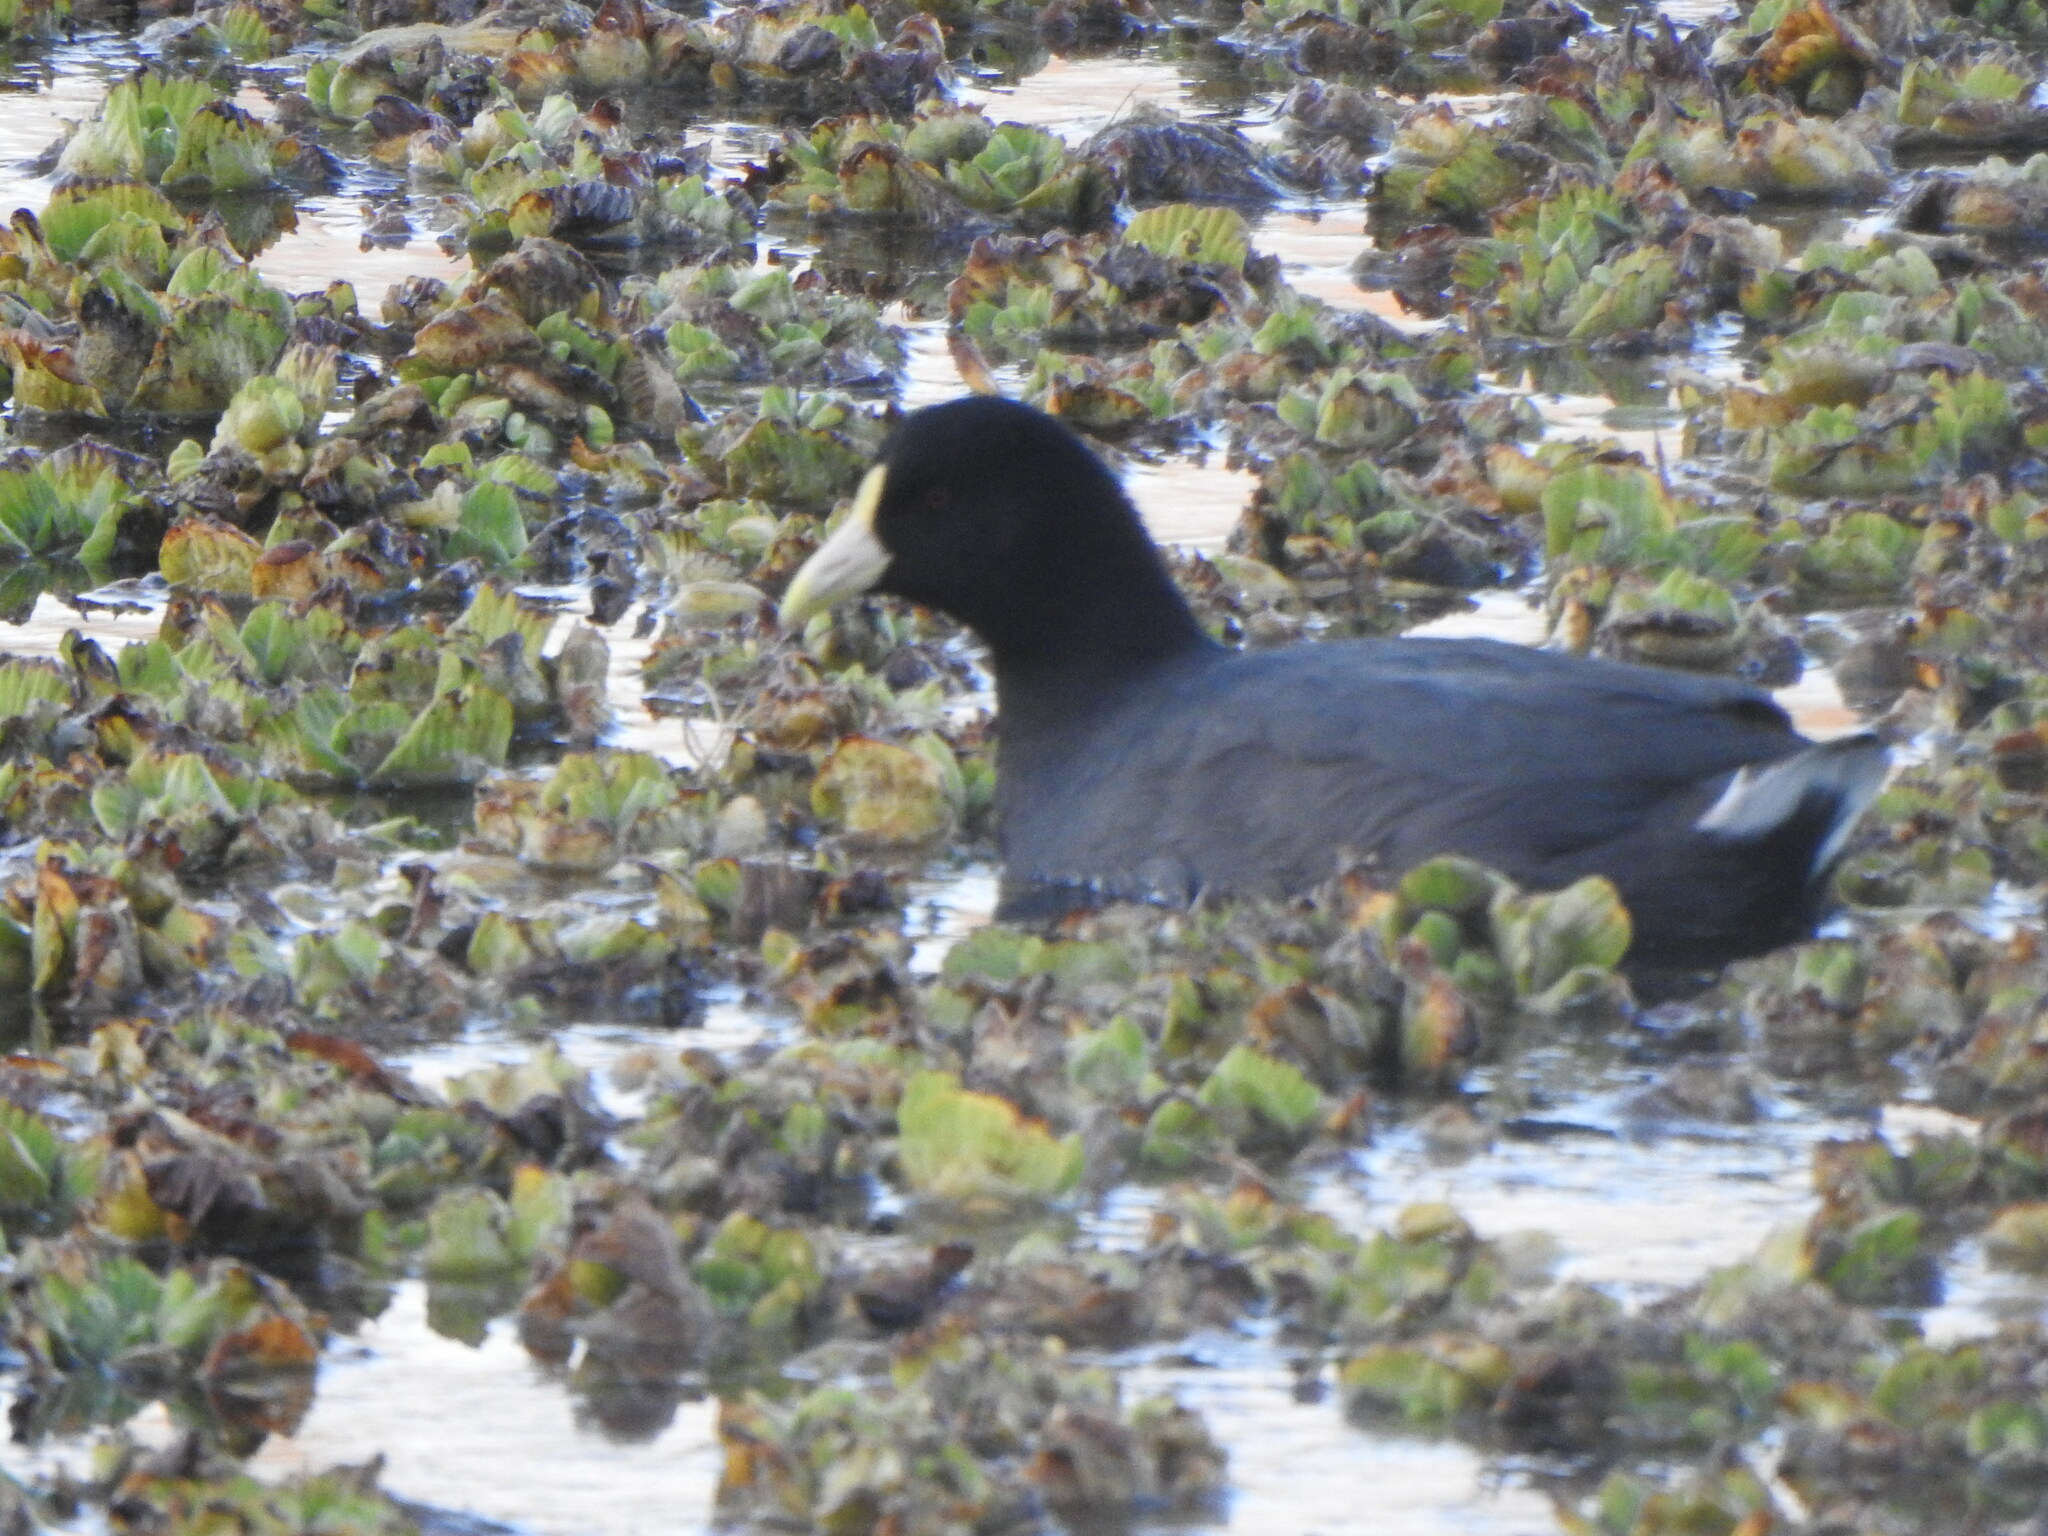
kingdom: Animalia
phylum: Chordata
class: Aves
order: Gruiformes
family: Rallidae
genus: Fulica
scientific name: Fulica leucoptera
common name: White-winged coot
